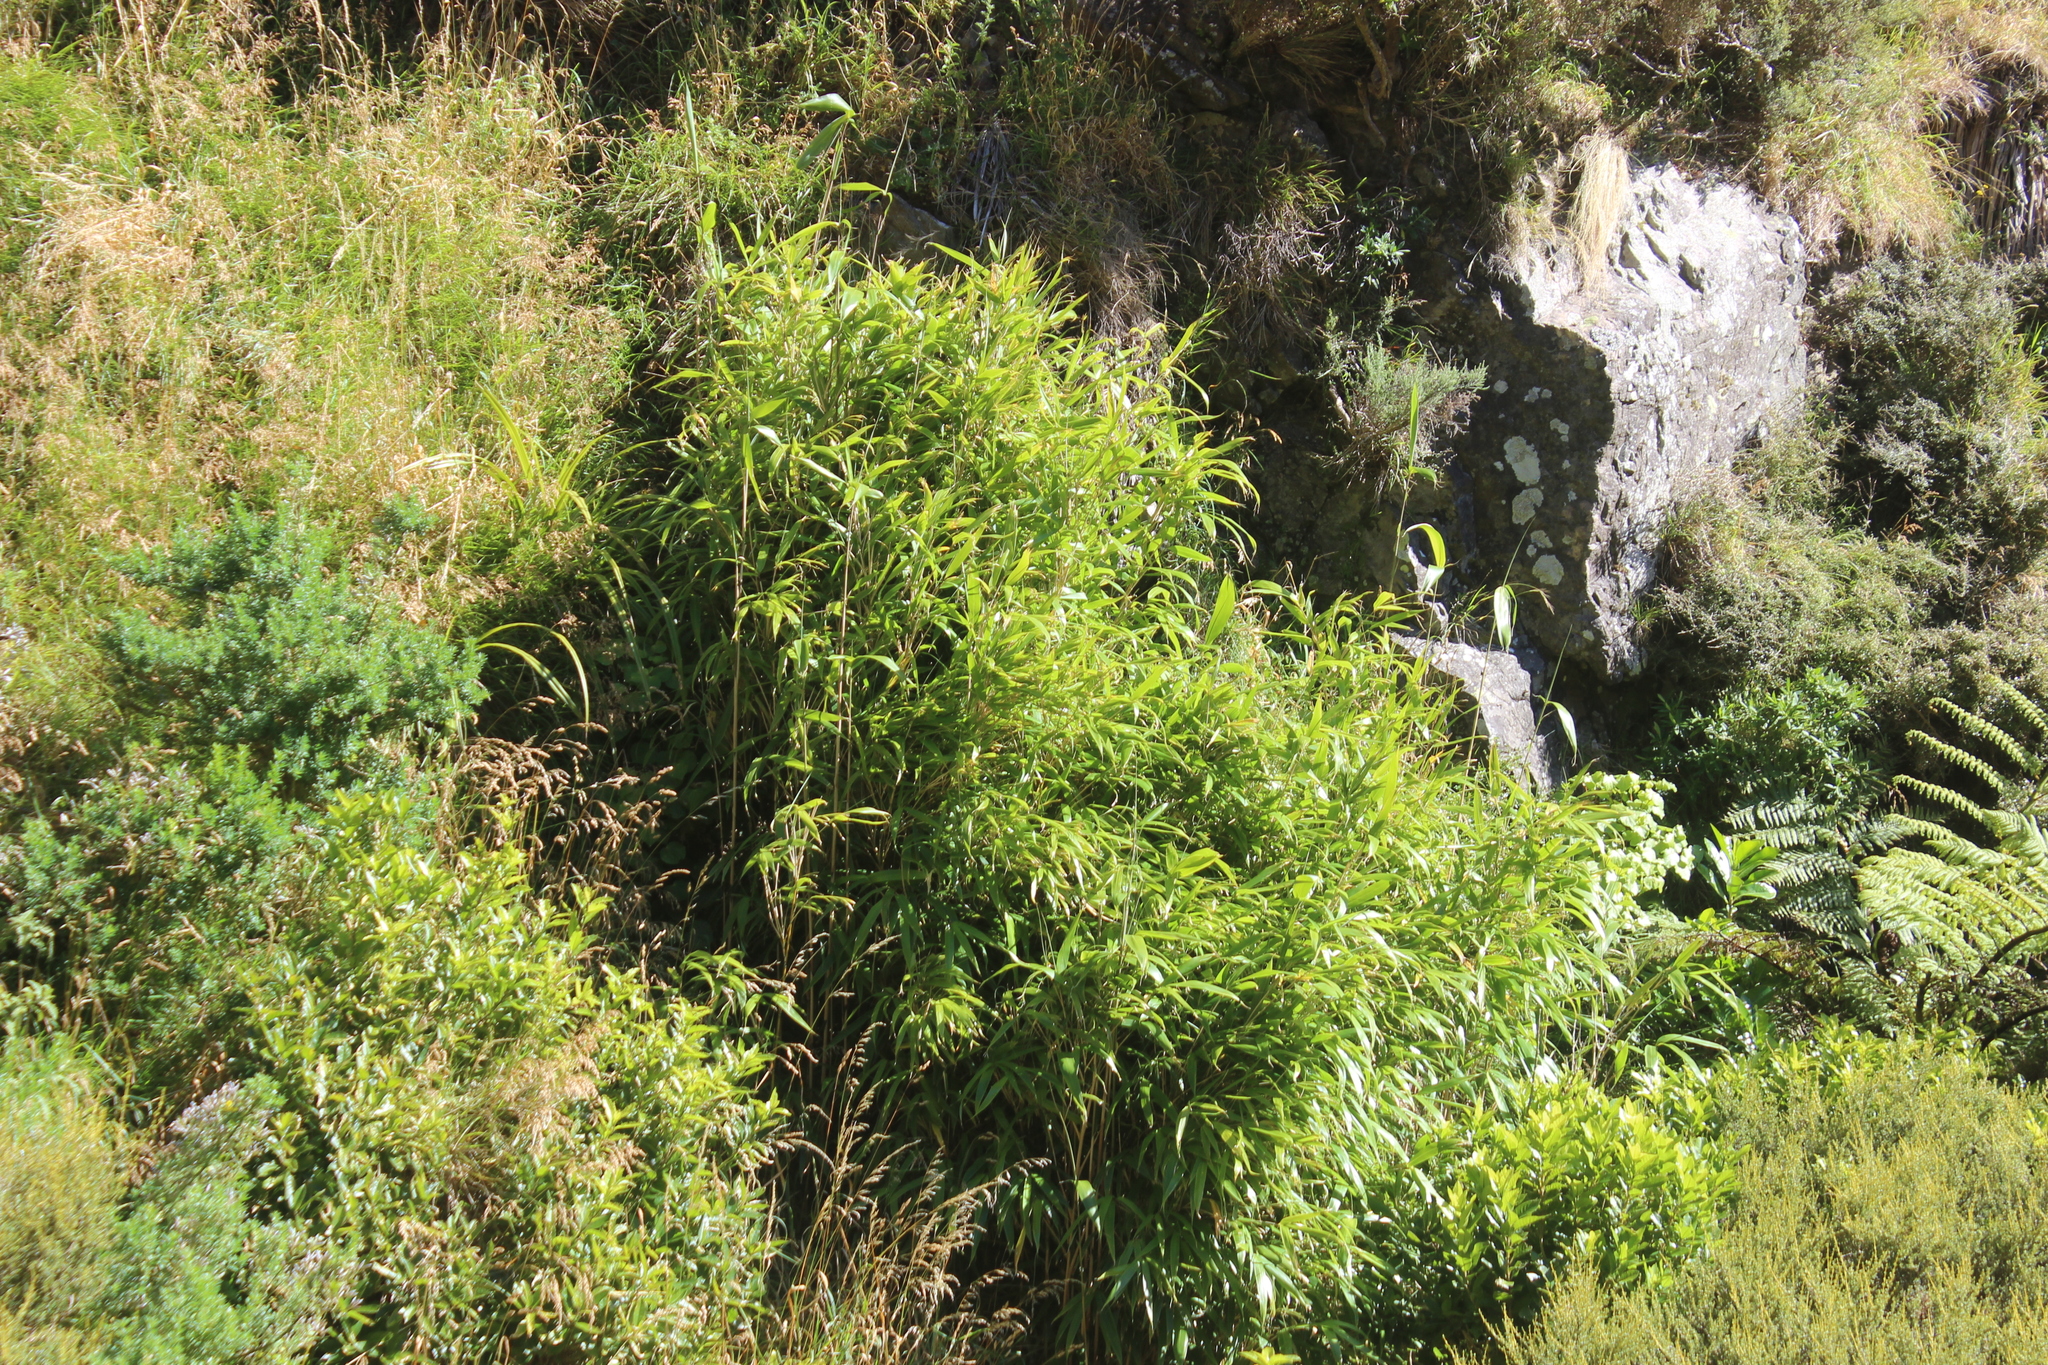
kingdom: Plantae
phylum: Tracheophyta
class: Liliopsida
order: Poales
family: Poaceae
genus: Pseudosasa
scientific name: Pseudosasa japonica
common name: Arrow bamboo
